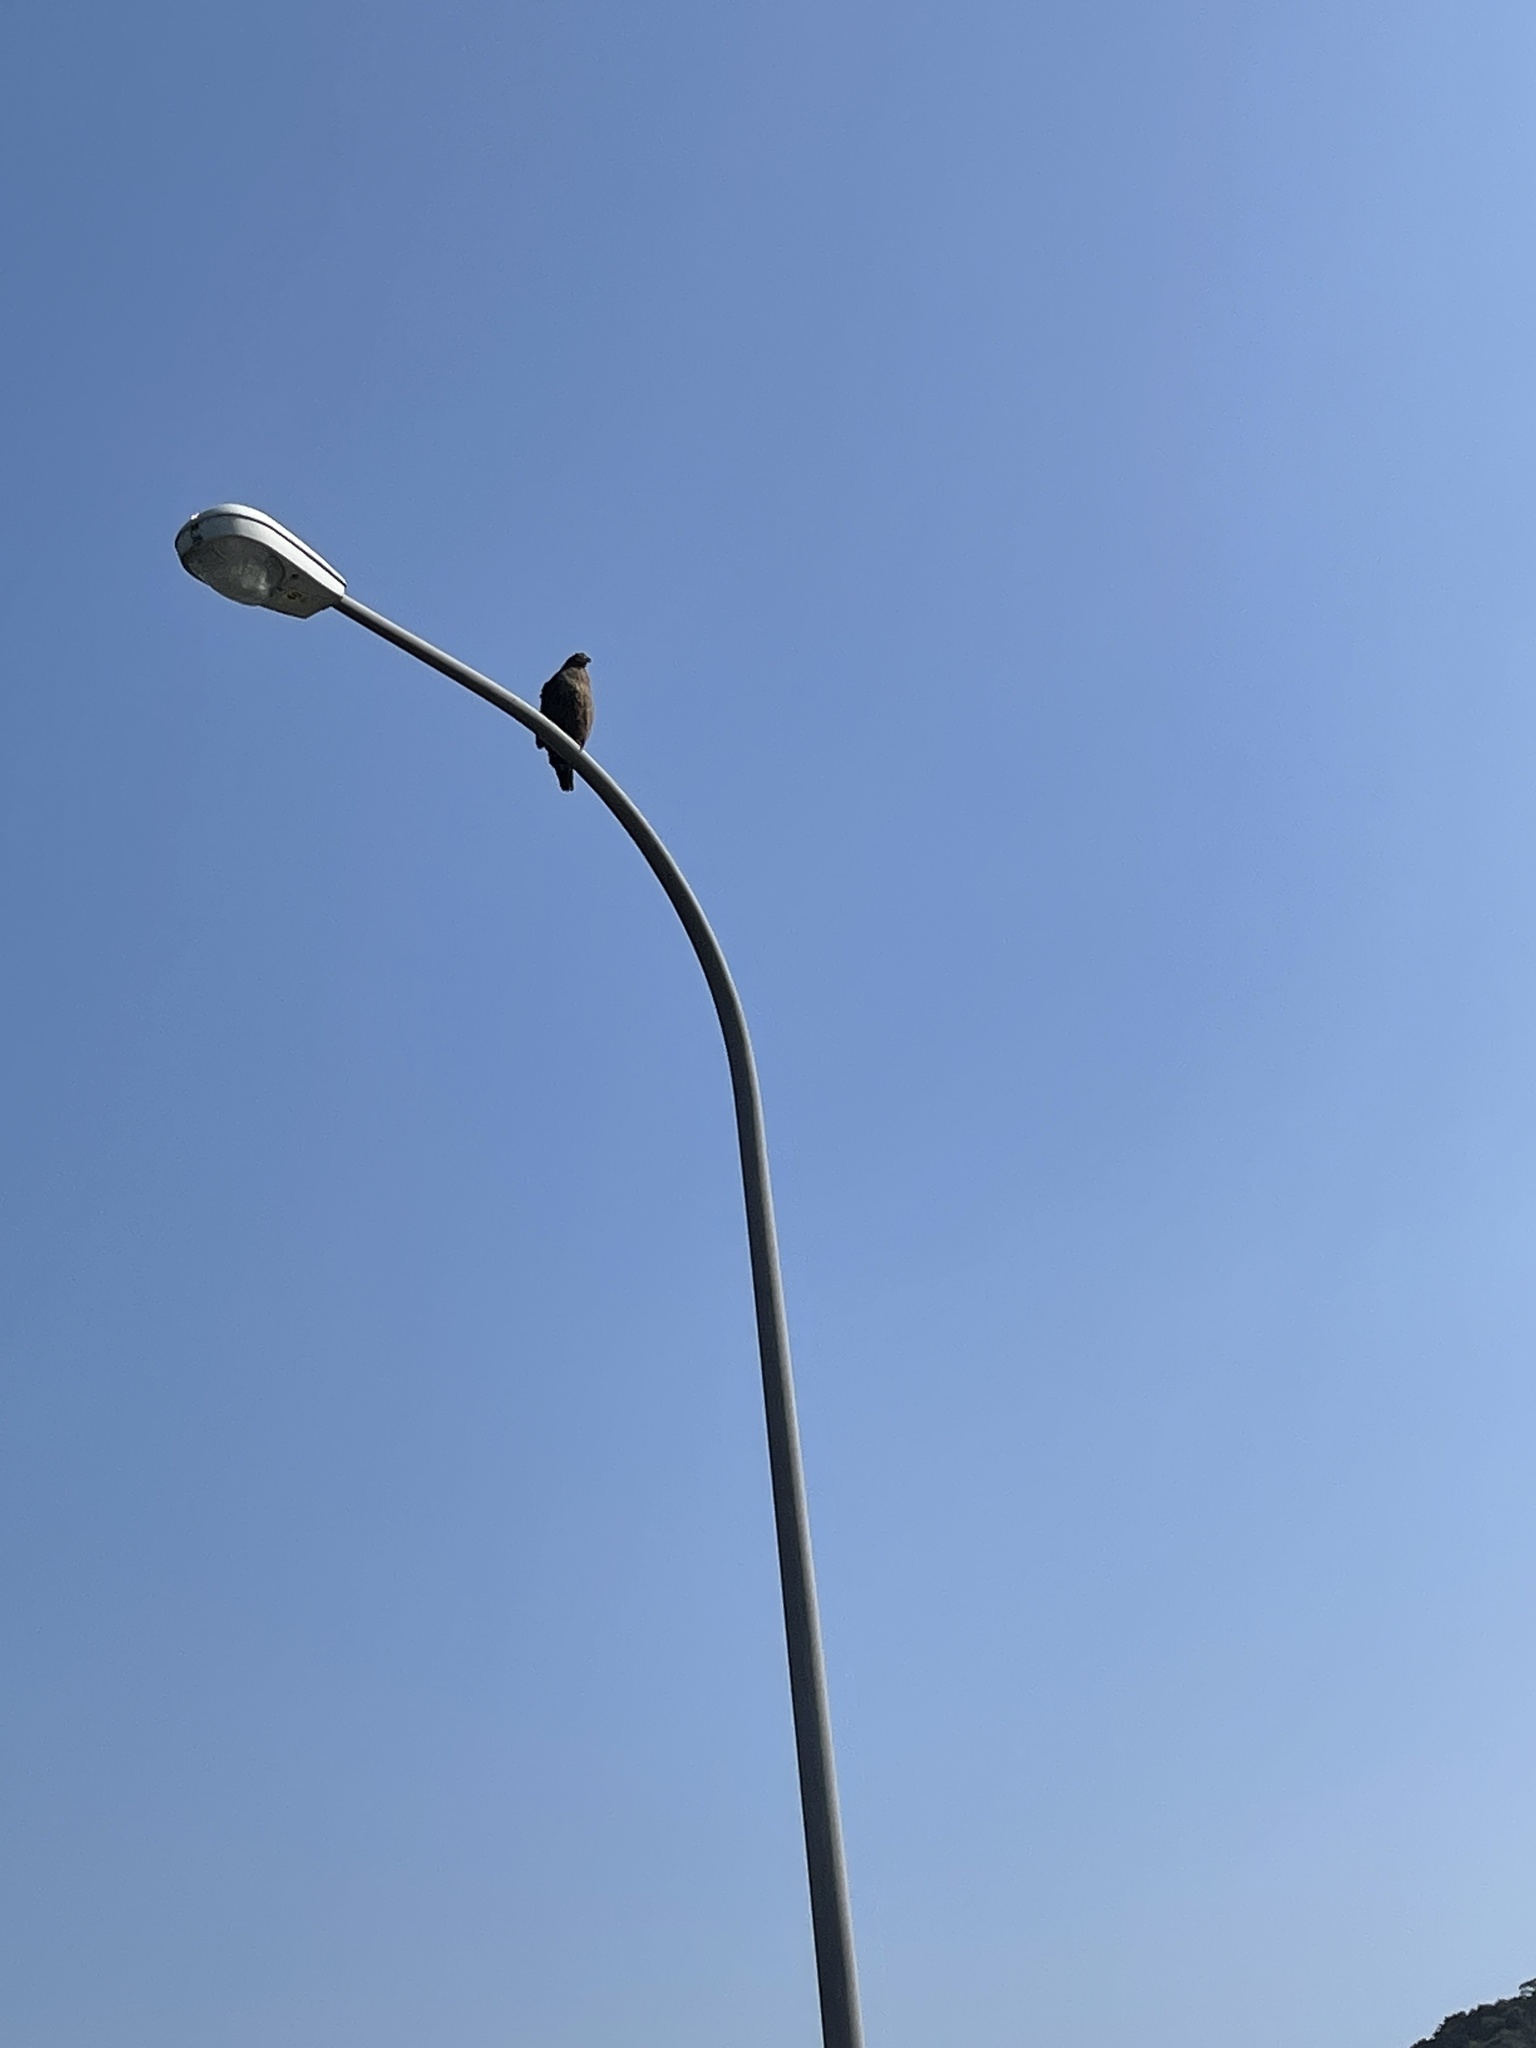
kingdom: Animalia
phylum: Chordata
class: Aves
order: Accipitriformes
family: Accipitridae
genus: Spilornis
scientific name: Spilornis cheela
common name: Crested serpent eagle
